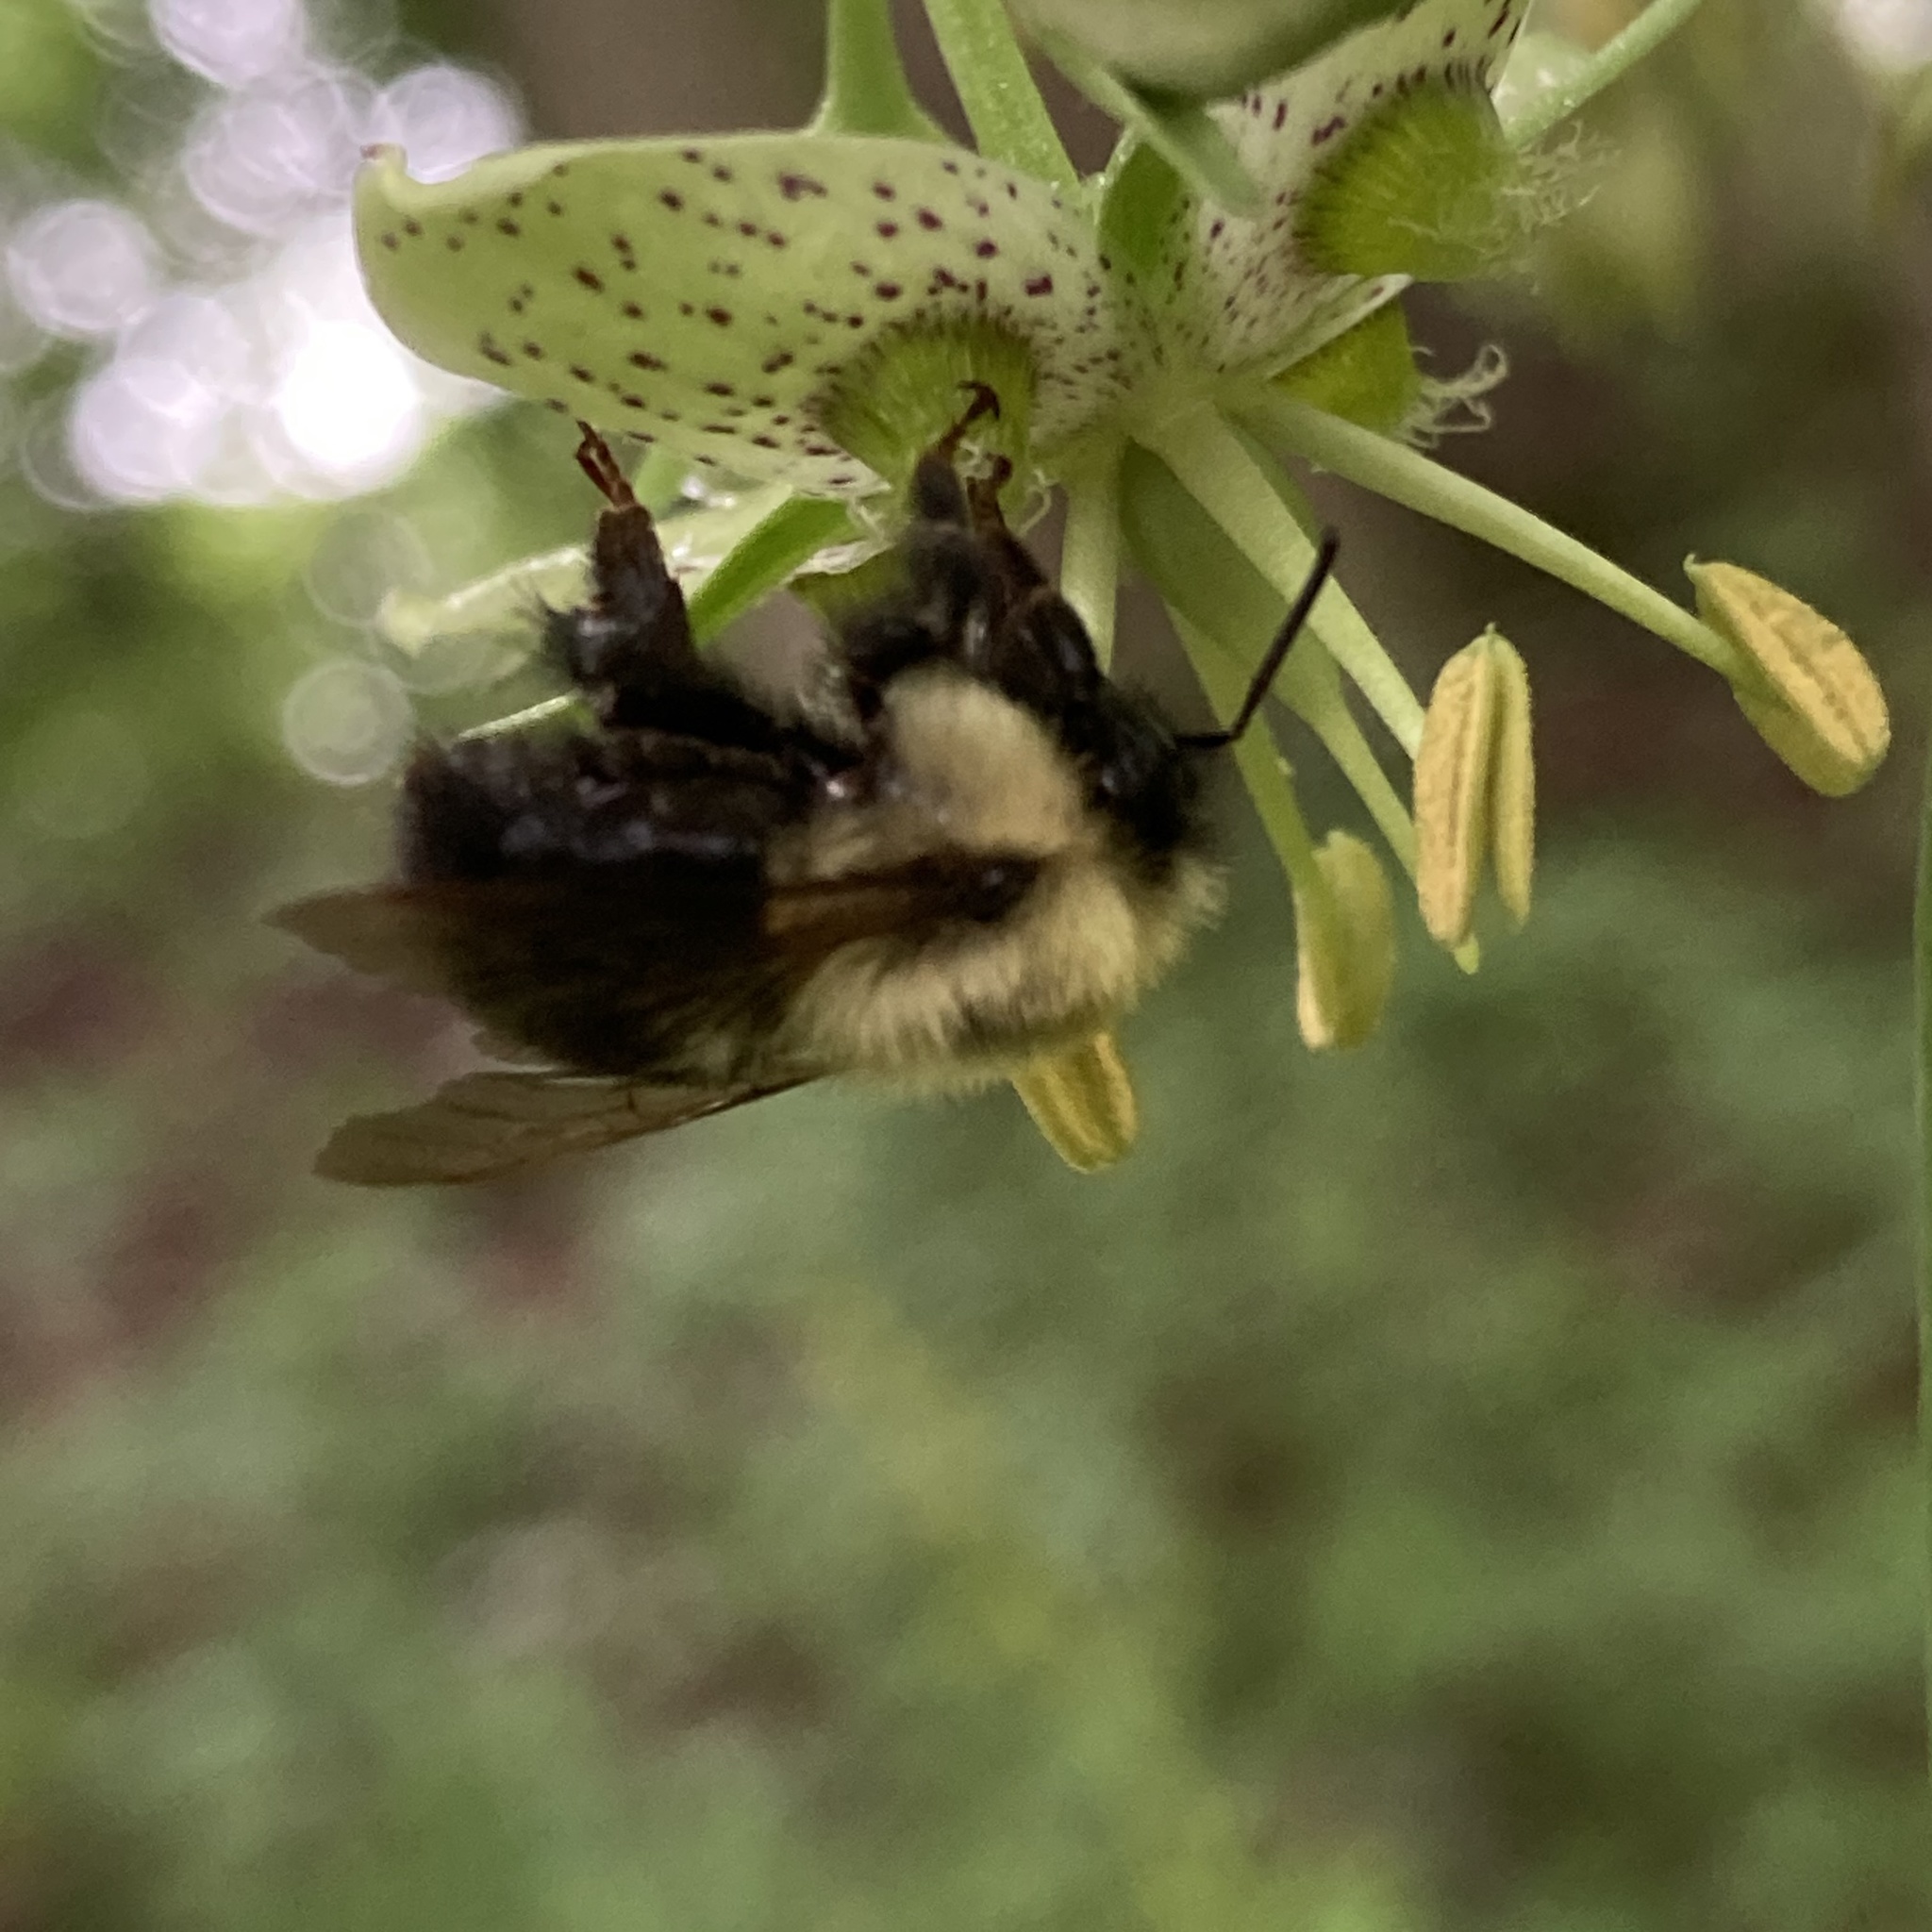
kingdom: Animalia
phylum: Arthropoda
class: Insecta
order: Hymenoptera
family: Apidae
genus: Bombus
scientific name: Bombus impatiens
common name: Common eastern bumble bee
